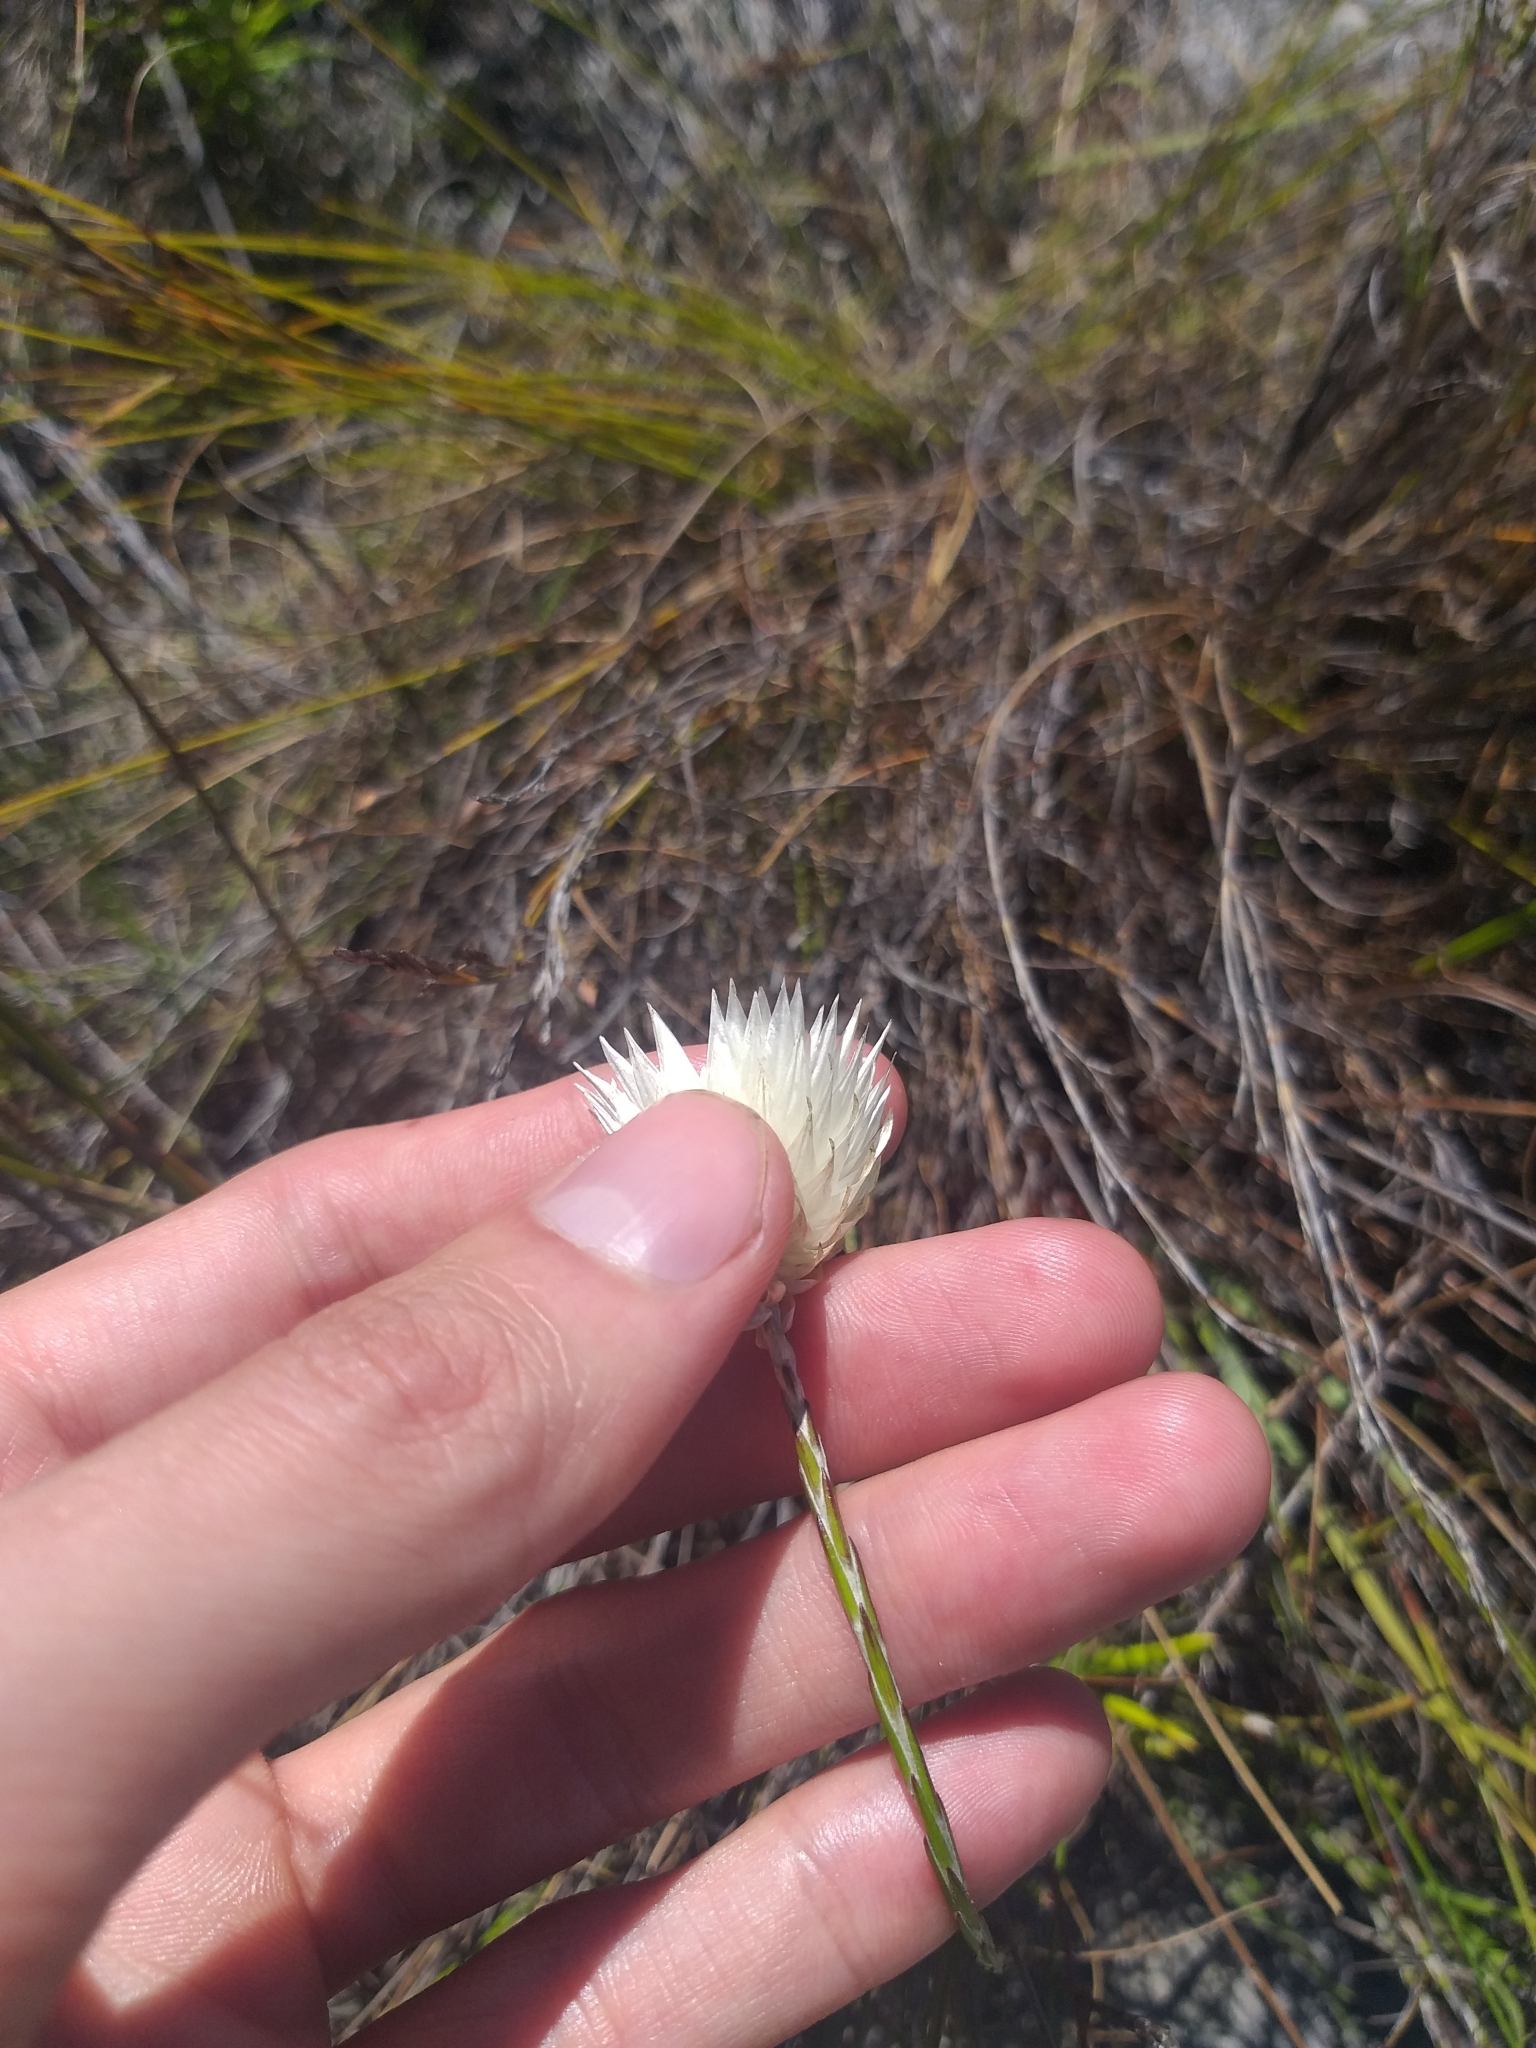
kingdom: Plantae
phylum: Tracheophyta
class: Magnoliopsida
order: Asterales
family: Asteraceae
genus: Edmondia
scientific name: Edmondia sesamoides
